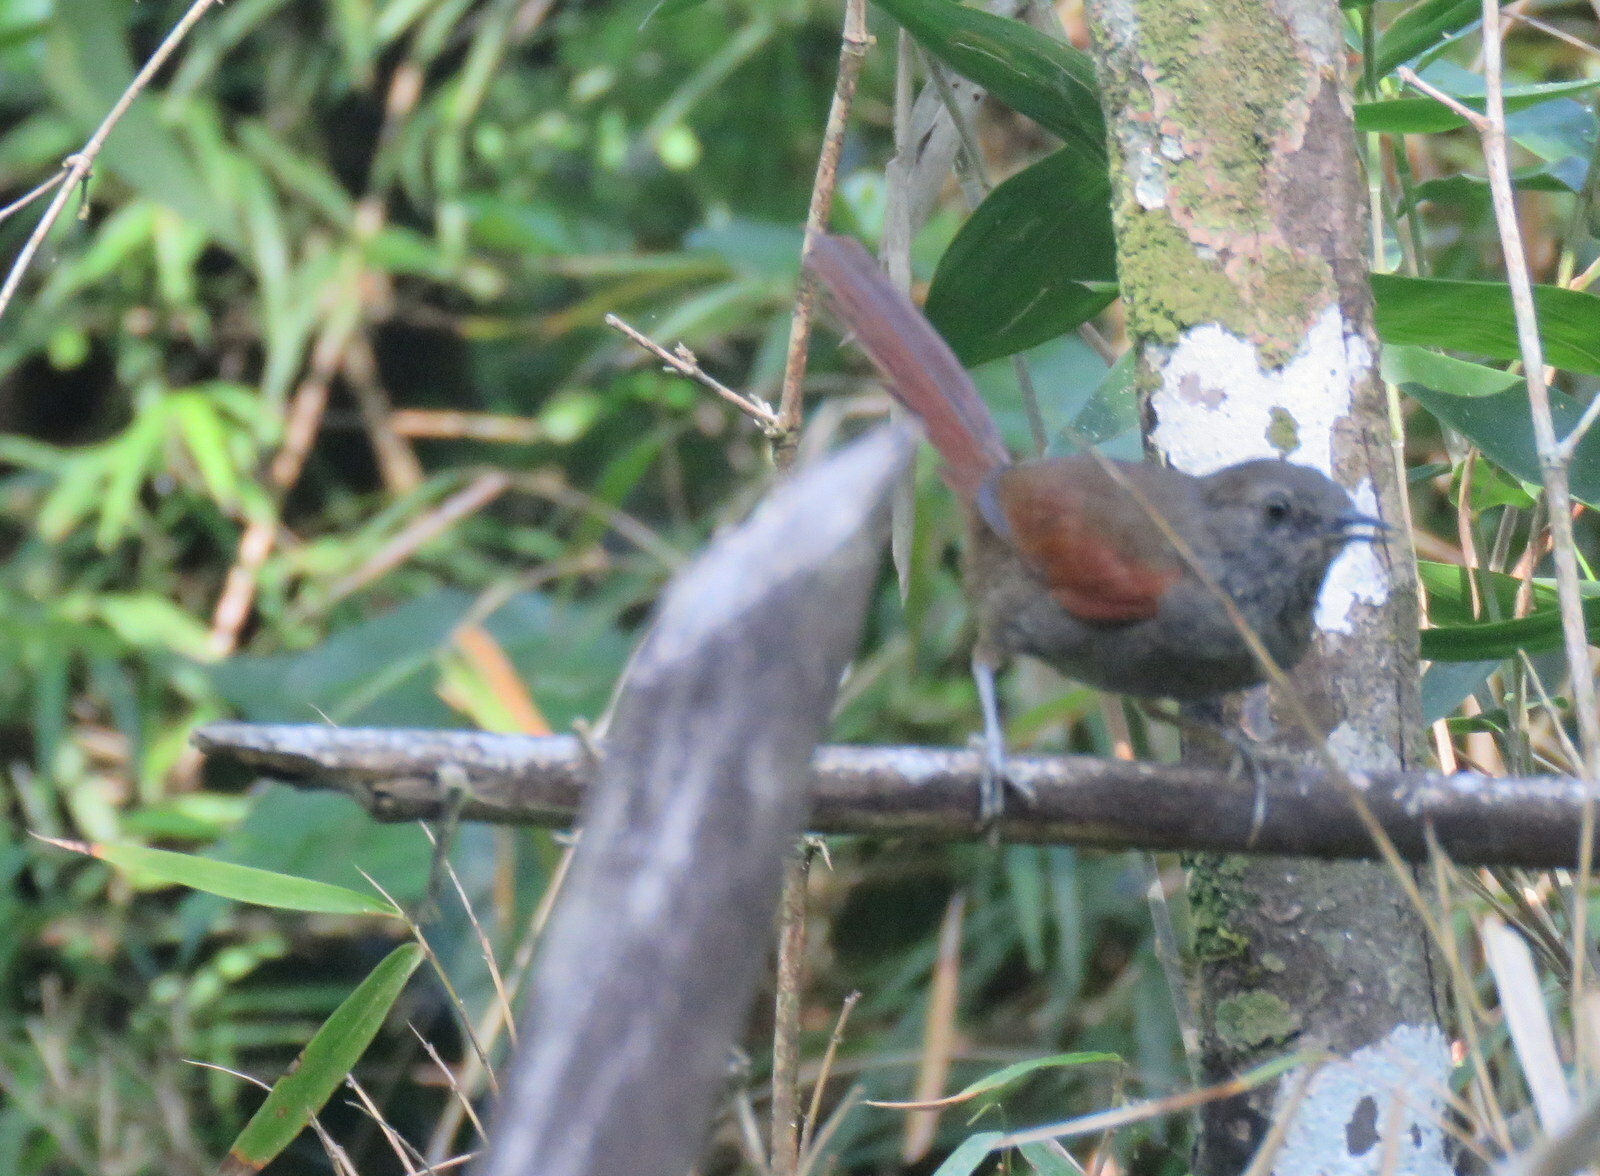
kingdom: Animalia
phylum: Chordata
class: Aves
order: Passeriformes
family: Furnariidae
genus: Synallaxis
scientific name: Synallaxis cinerascens
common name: Grey-bellied spinetail
